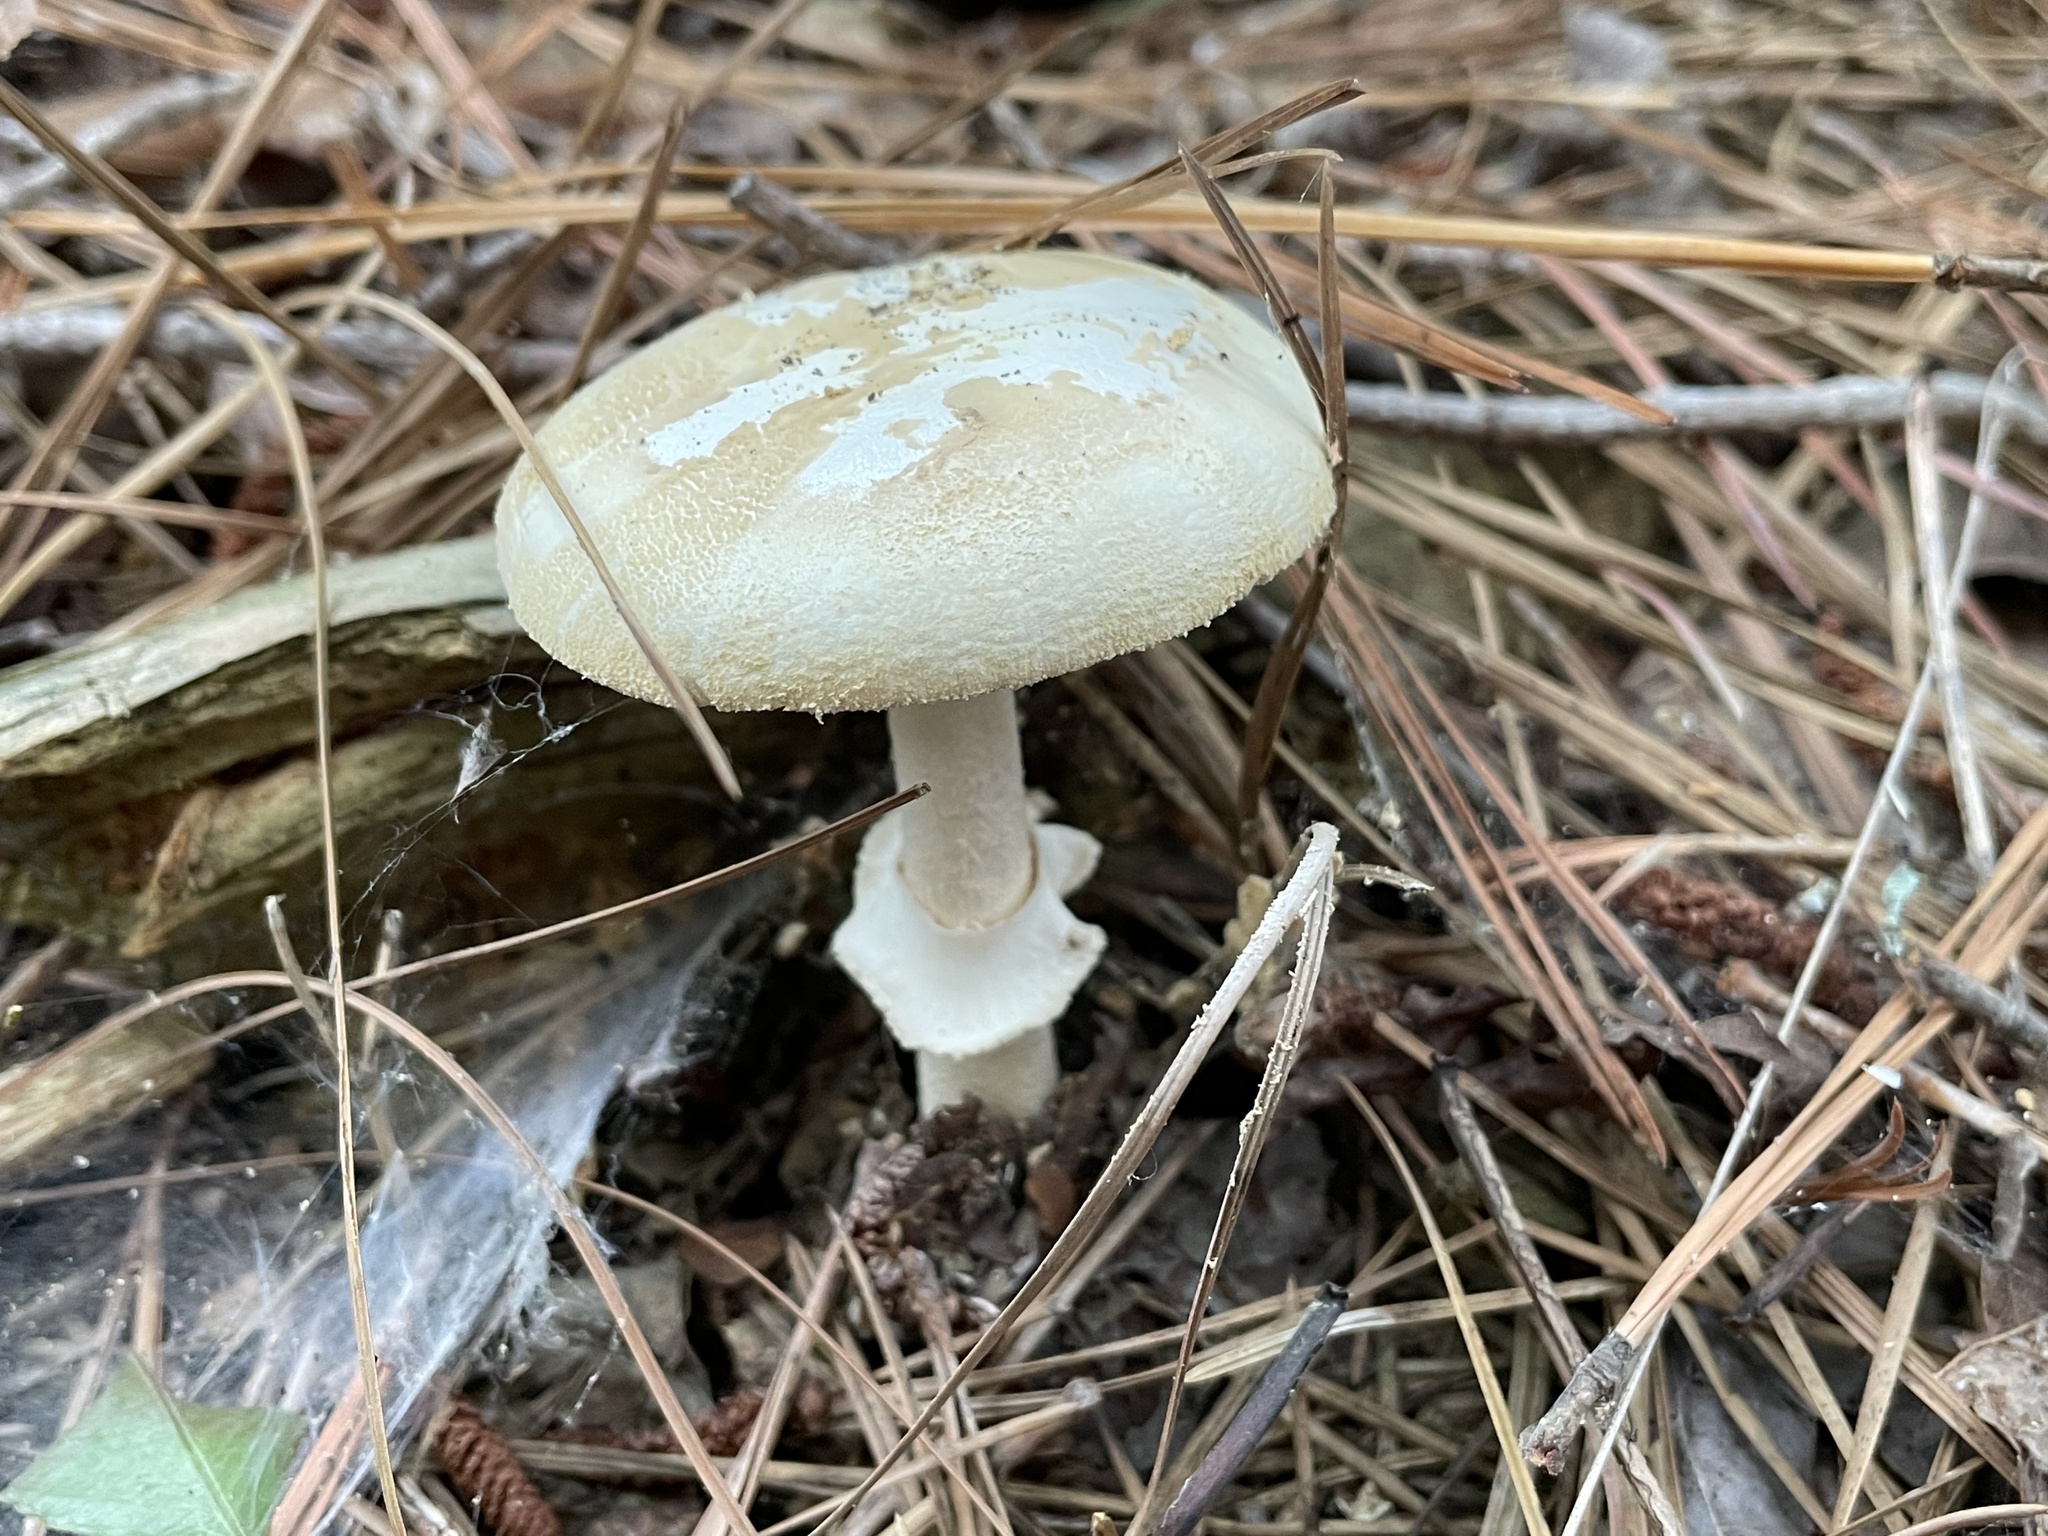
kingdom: Fungi
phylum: Basidiomycota
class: Agaricomycetes
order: Agaricales
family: Amanitaceae
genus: Amanita
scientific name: Amanita roseotincta
